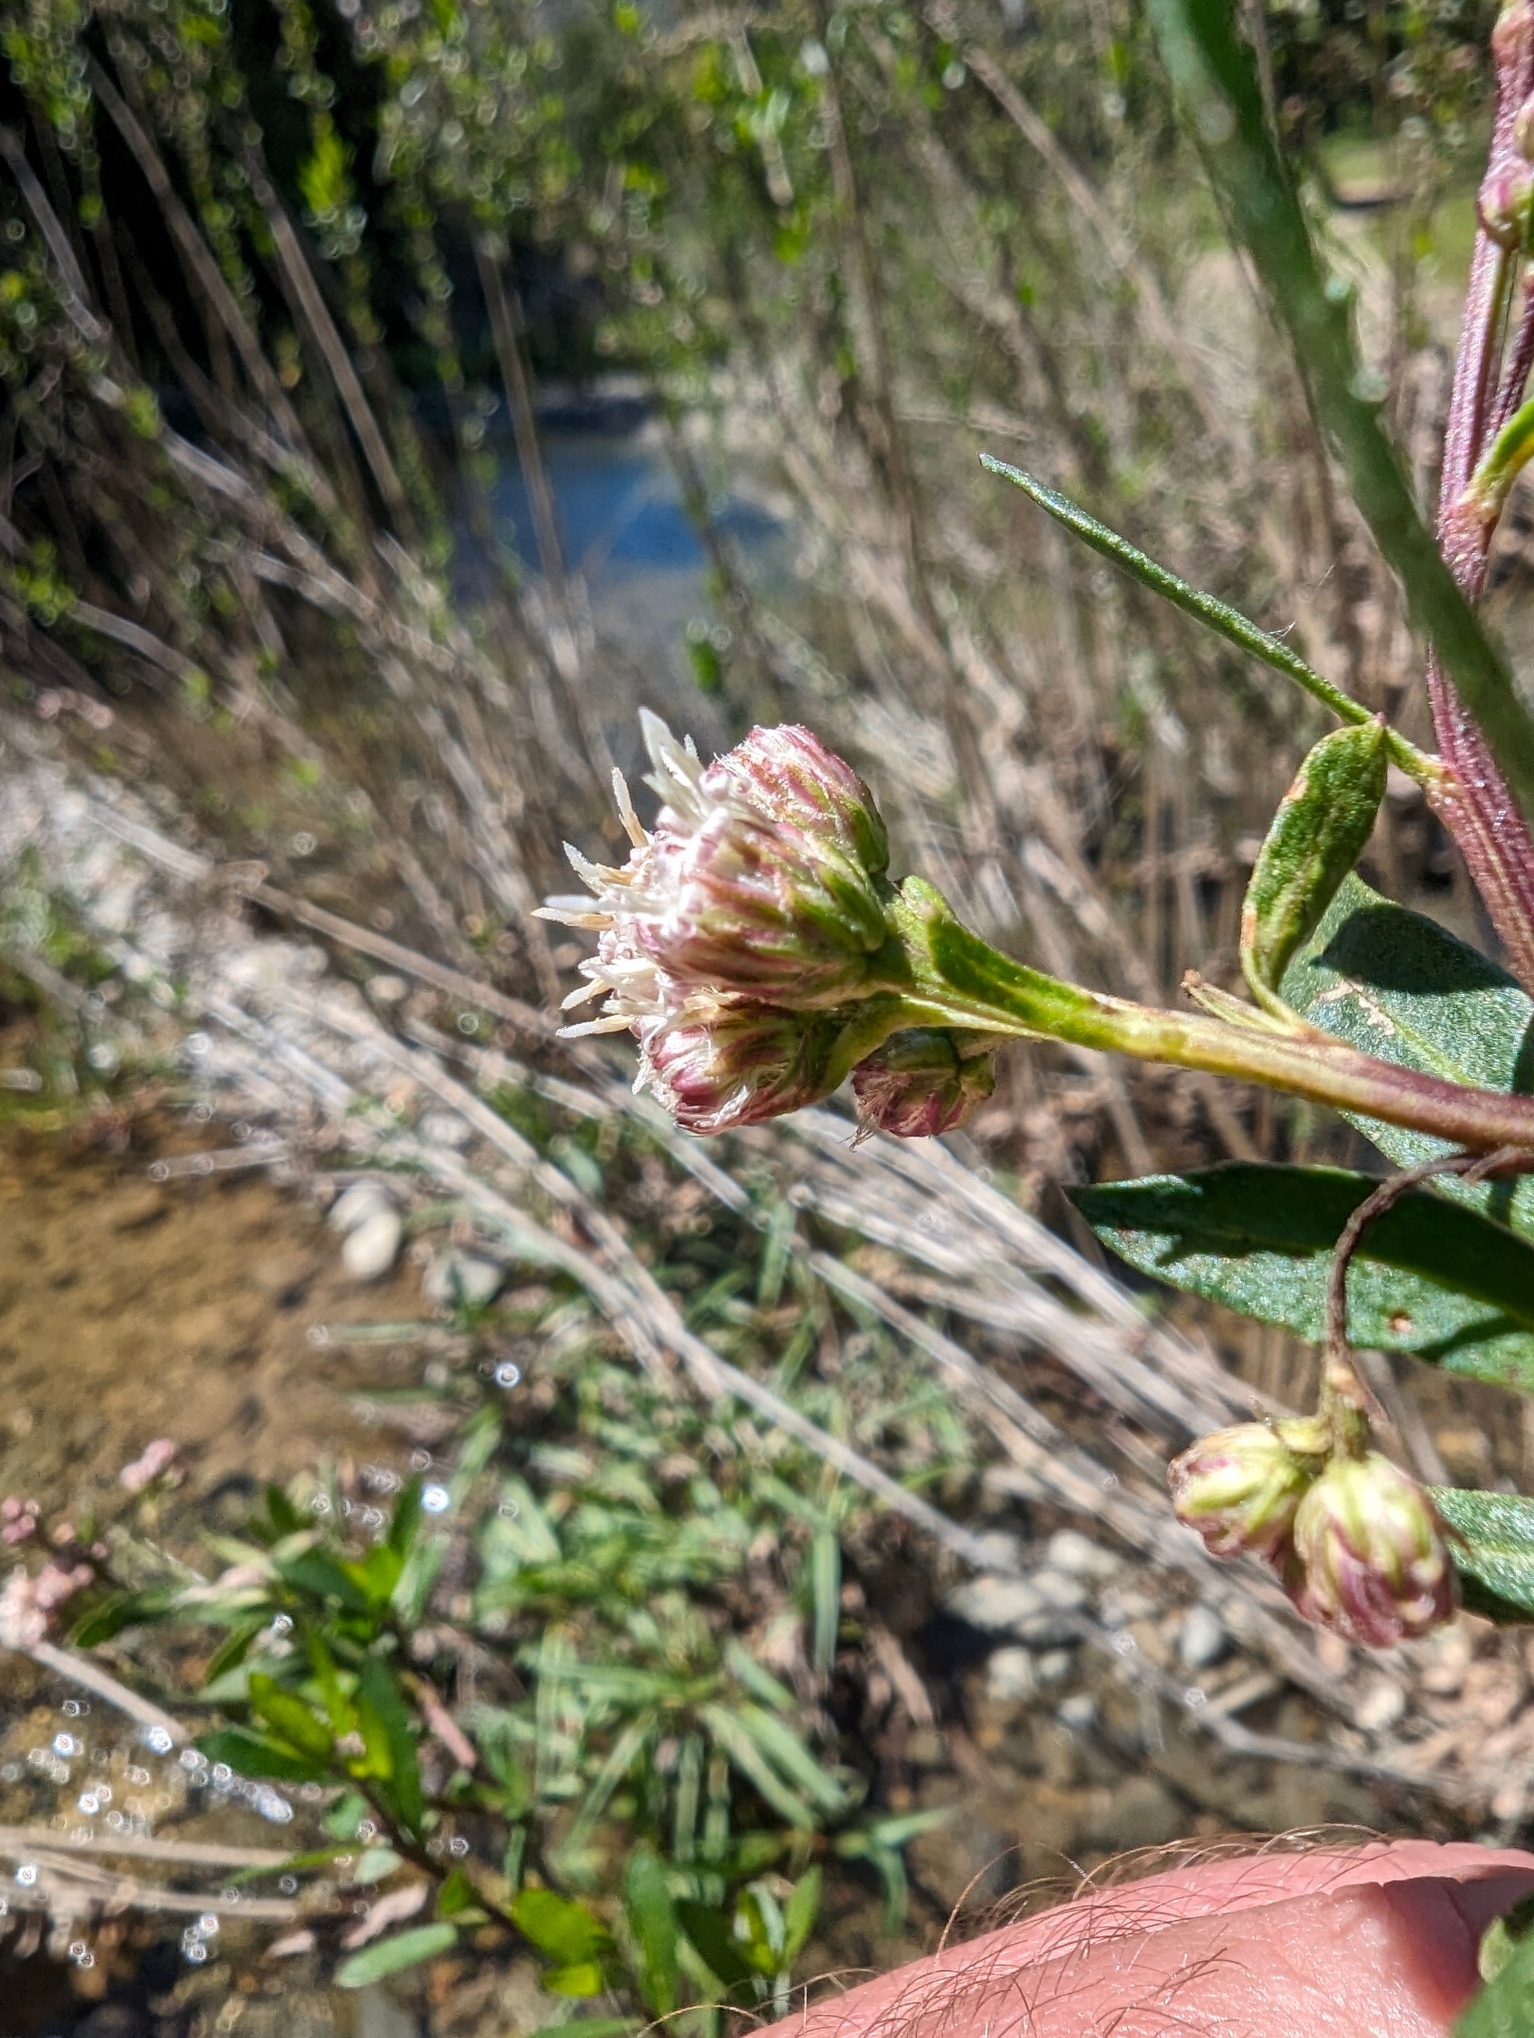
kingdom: Plantae
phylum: Tracheophyta
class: Magnoliopsida
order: Asterales
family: Asteraceae
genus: Baccharis
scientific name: Baccharis salicifolia
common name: Sticky baccharis
